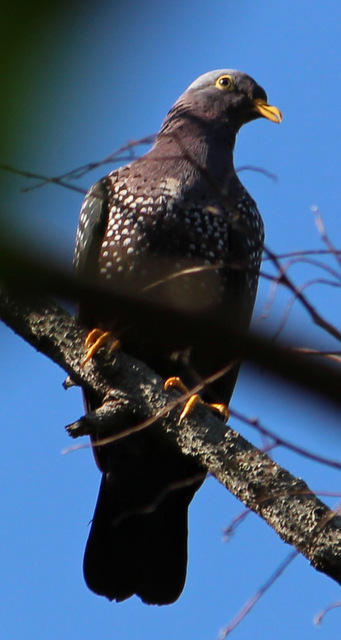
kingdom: Animalia
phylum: Chordata
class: Aves
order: Columbiformes
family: Columbidae
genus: Columba
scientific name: Columba arquatrix
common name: African olive pigeon
